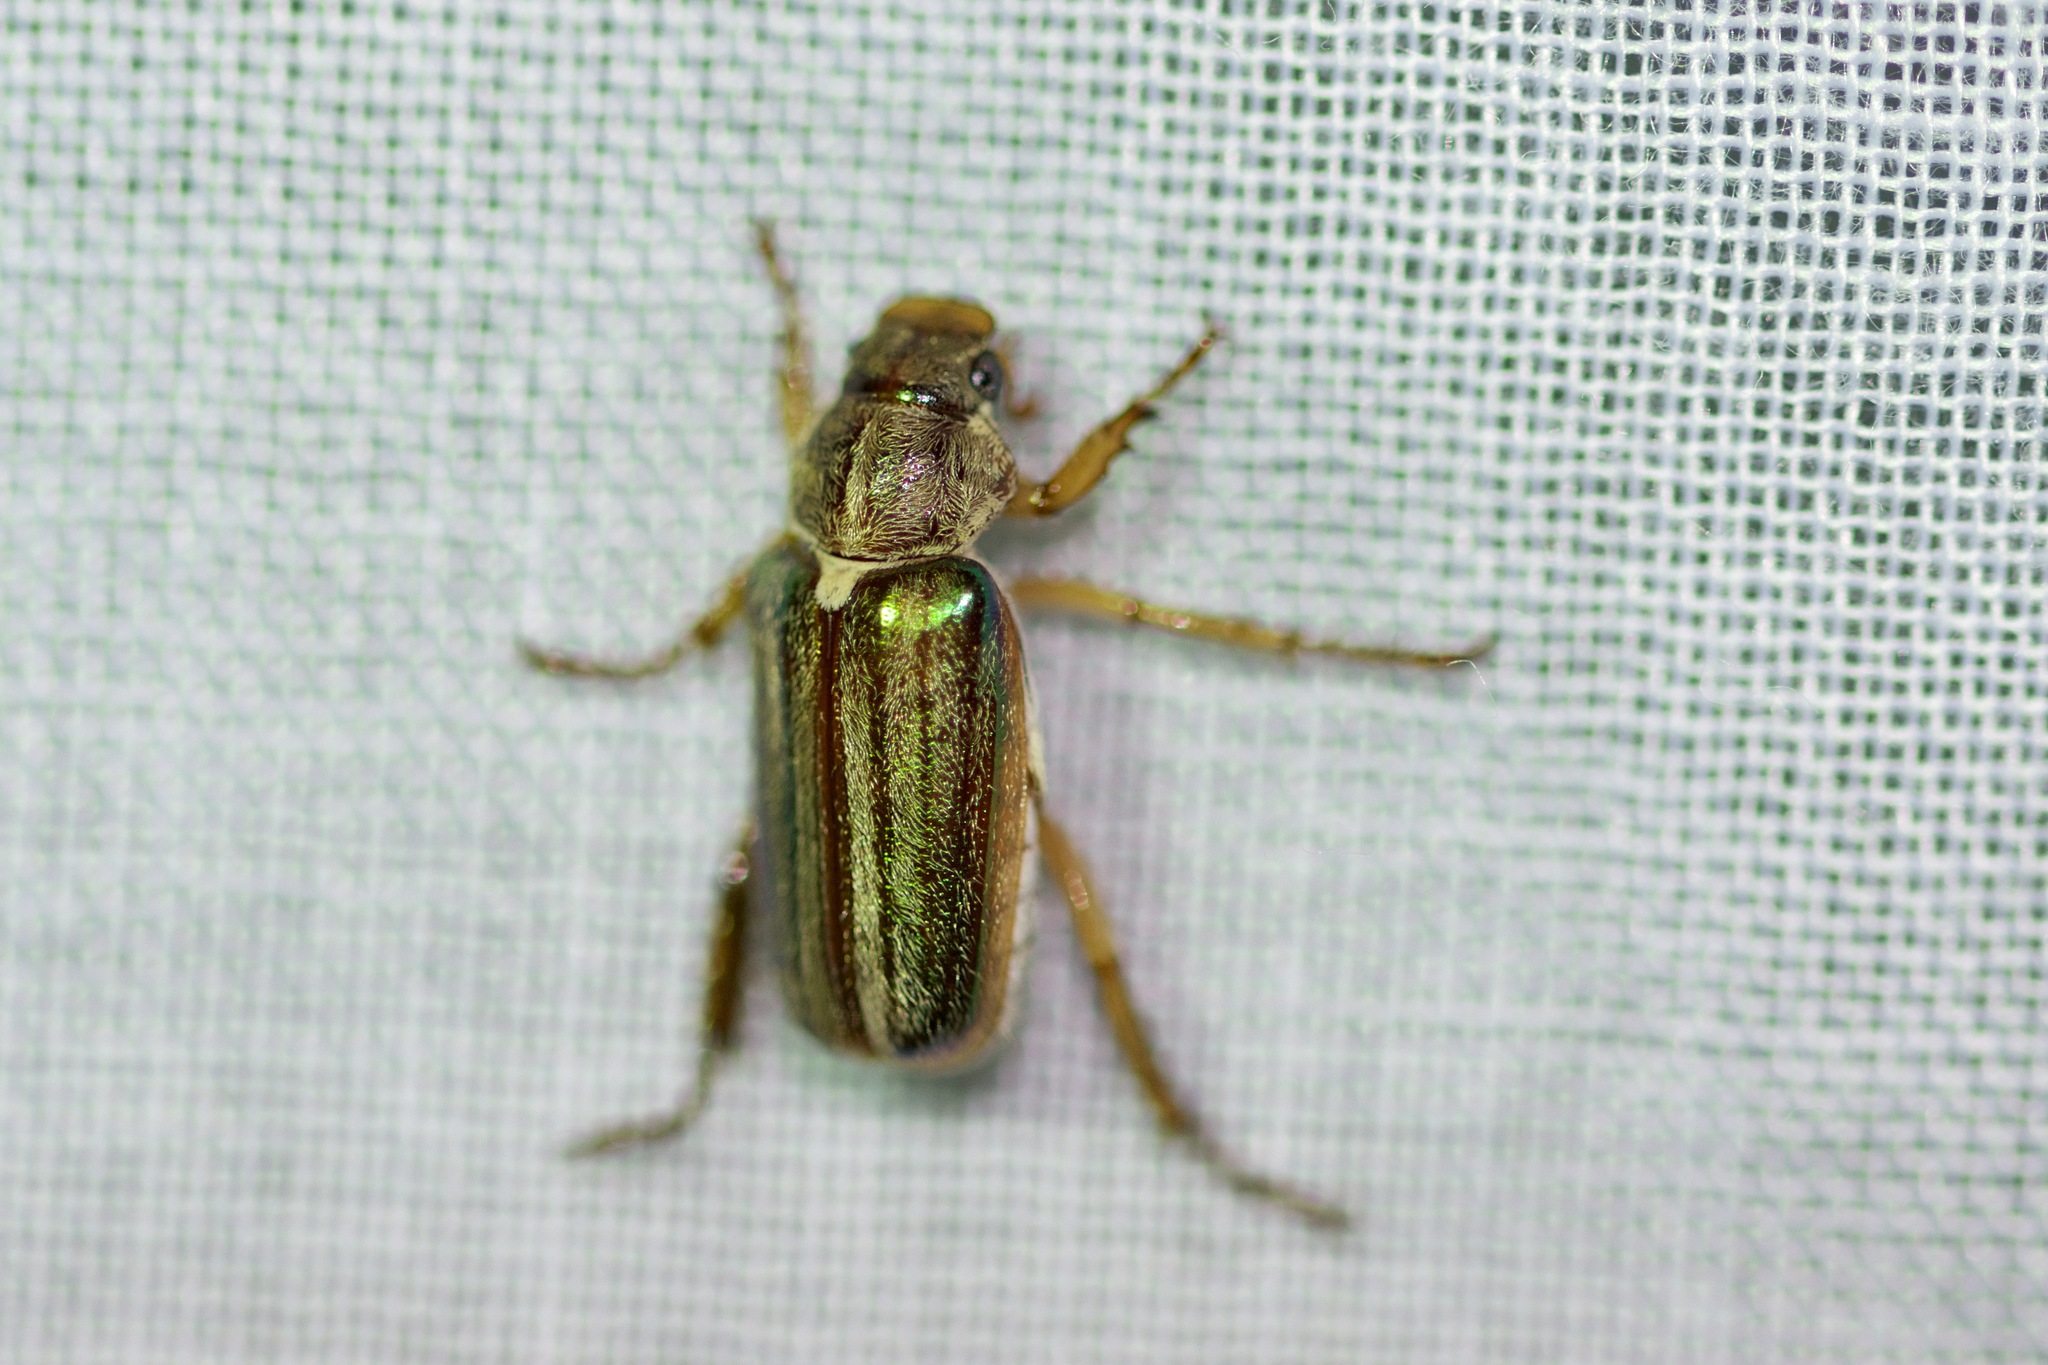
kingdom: Animalia
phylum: Arthropoda
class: Insecta
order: Coleoptera
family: Scarabaeidae
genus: Dichelonyx
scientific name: Dichelonyx albicollis
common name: White-necked pine-beetle
